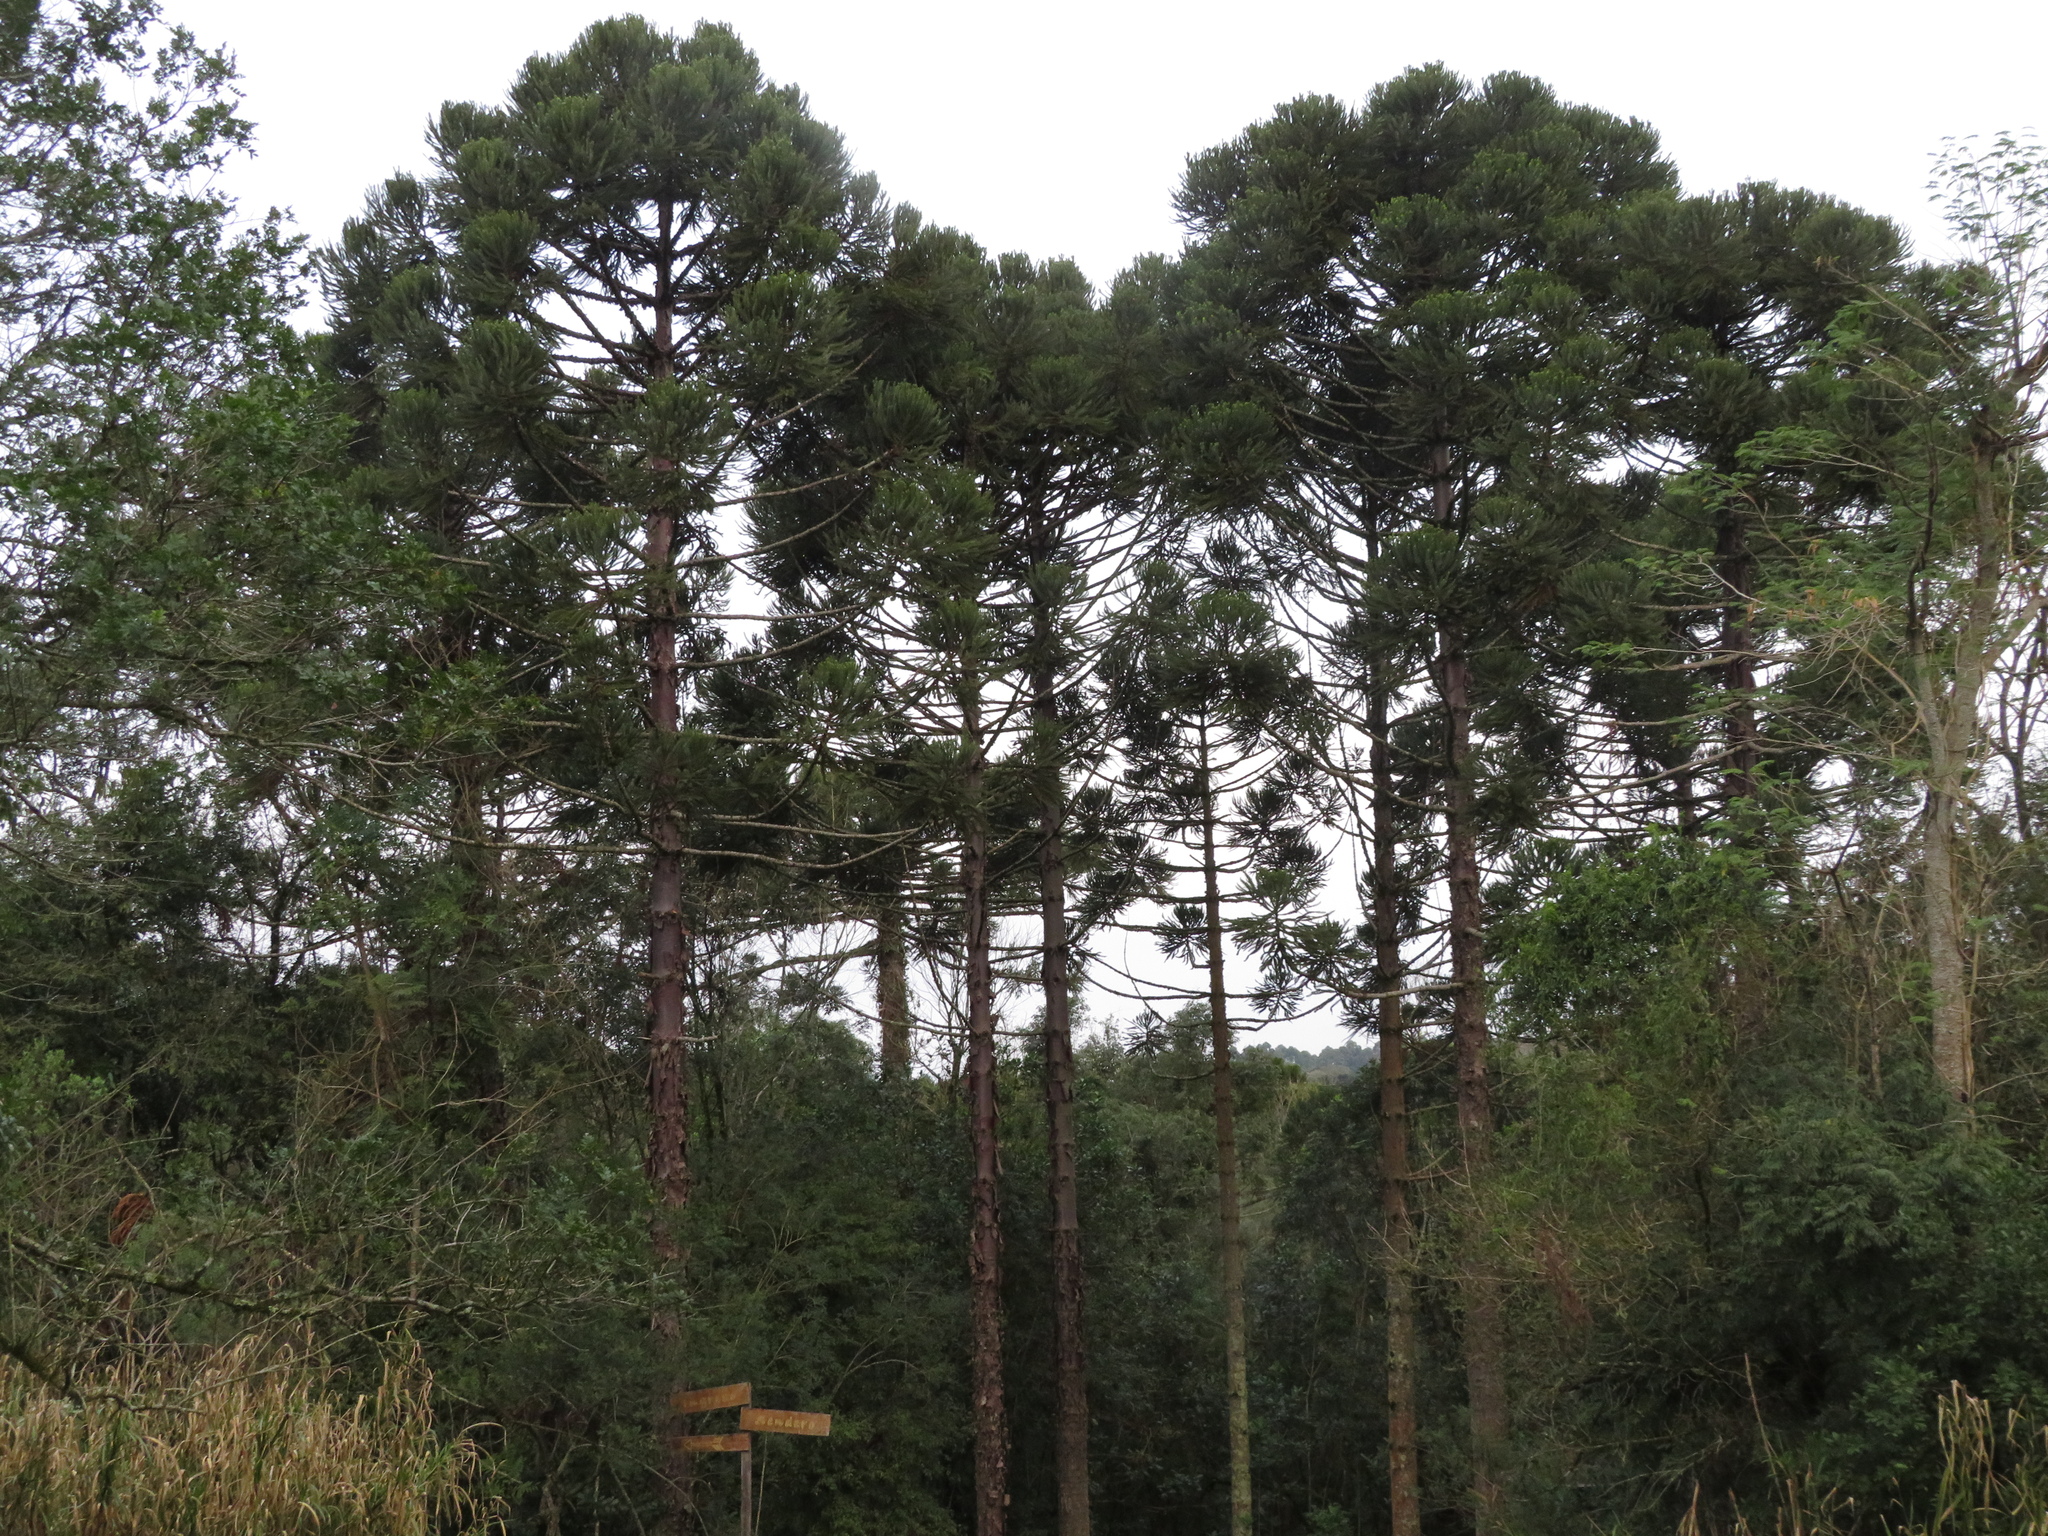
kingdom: Plantae
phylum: Tracheophyta
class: Pinopsida
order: Pinales
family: Araucariaceae
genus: Araucaria
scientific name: Araucaria angustifolia
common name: Candelabra tree
